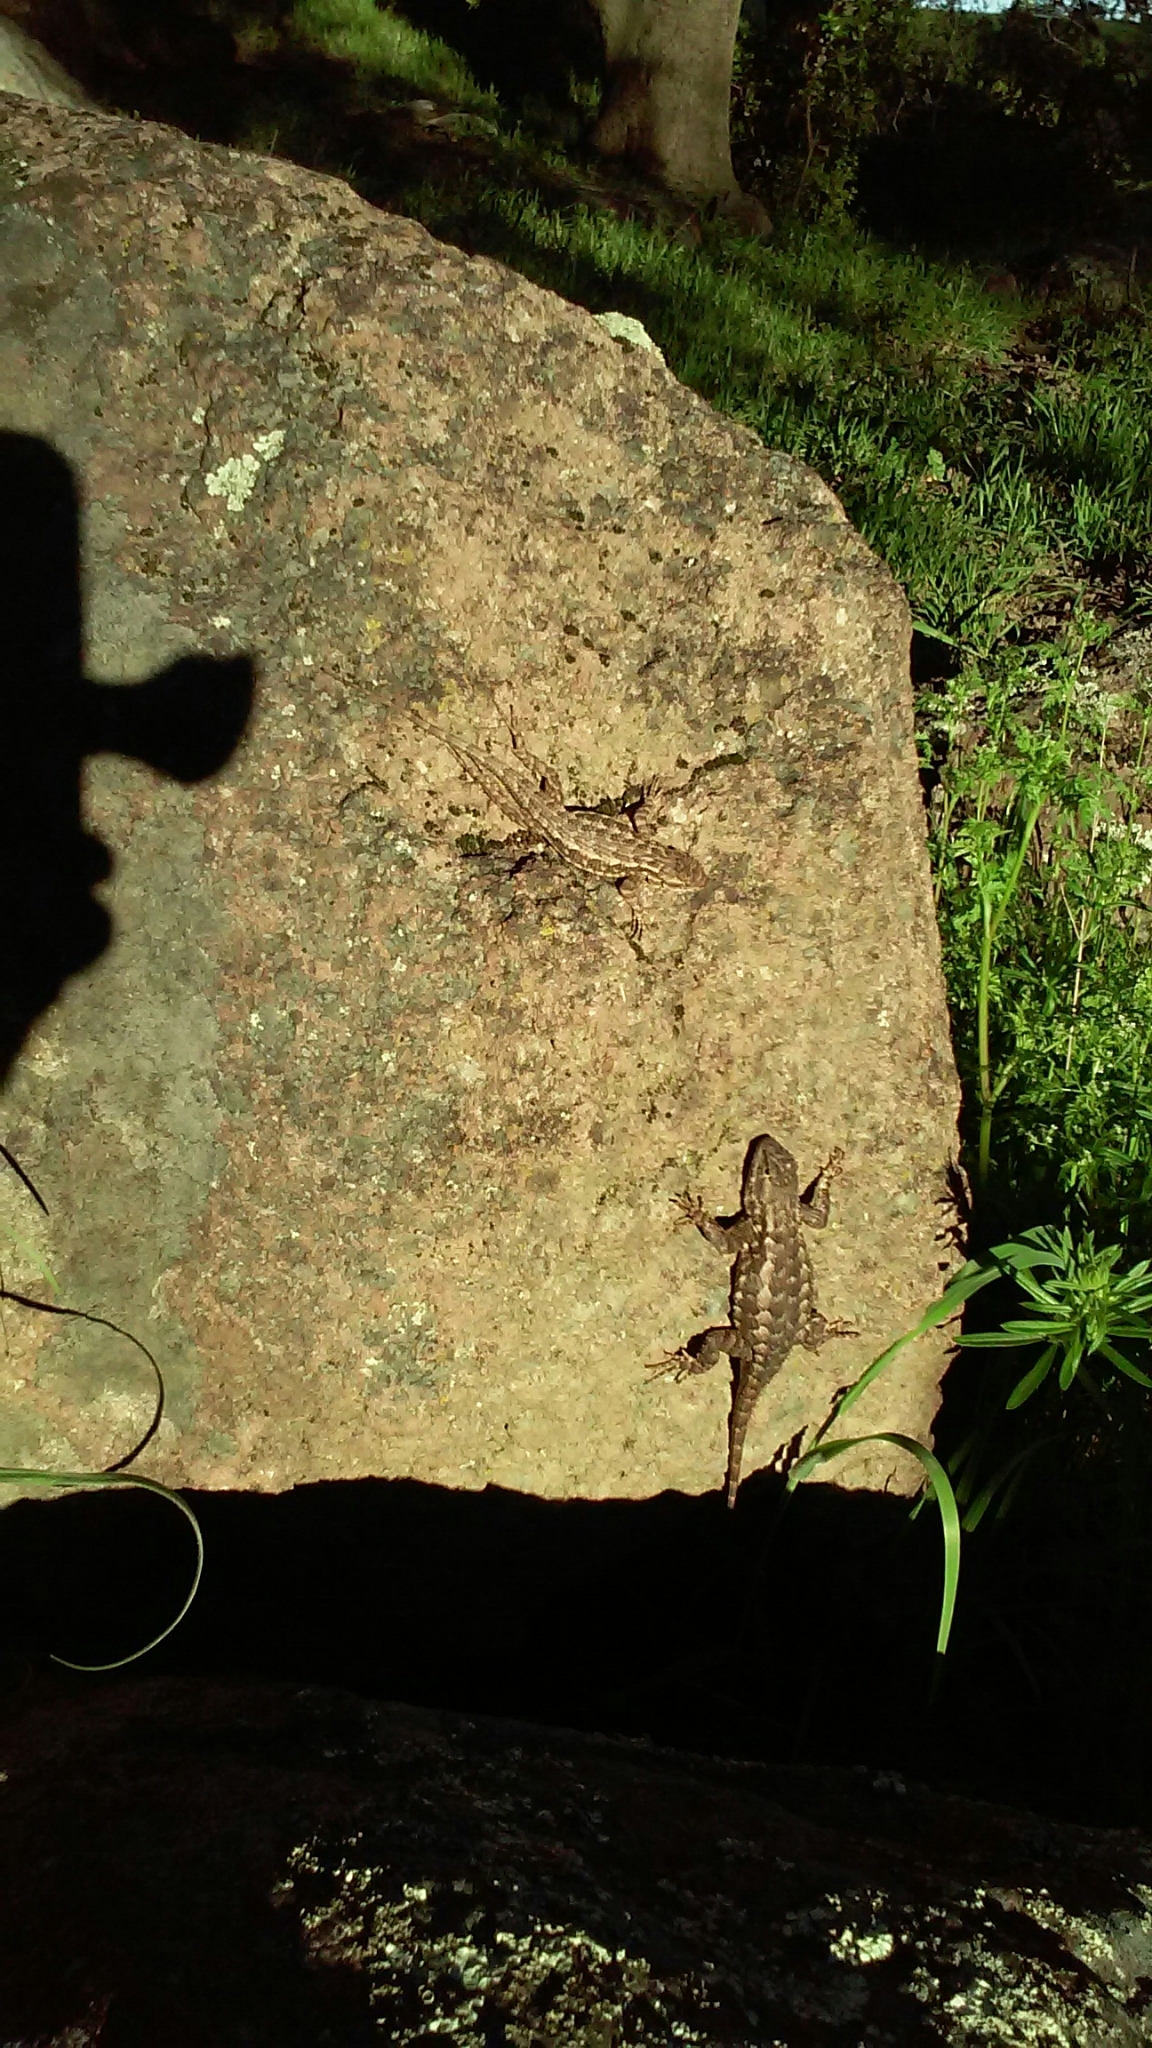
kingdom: Animalia
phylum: Chordata
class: Squamata
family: Phrynosomatidae
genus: Sceloporus
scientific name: Sceloporus occidentalis
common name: Western fence lizard
